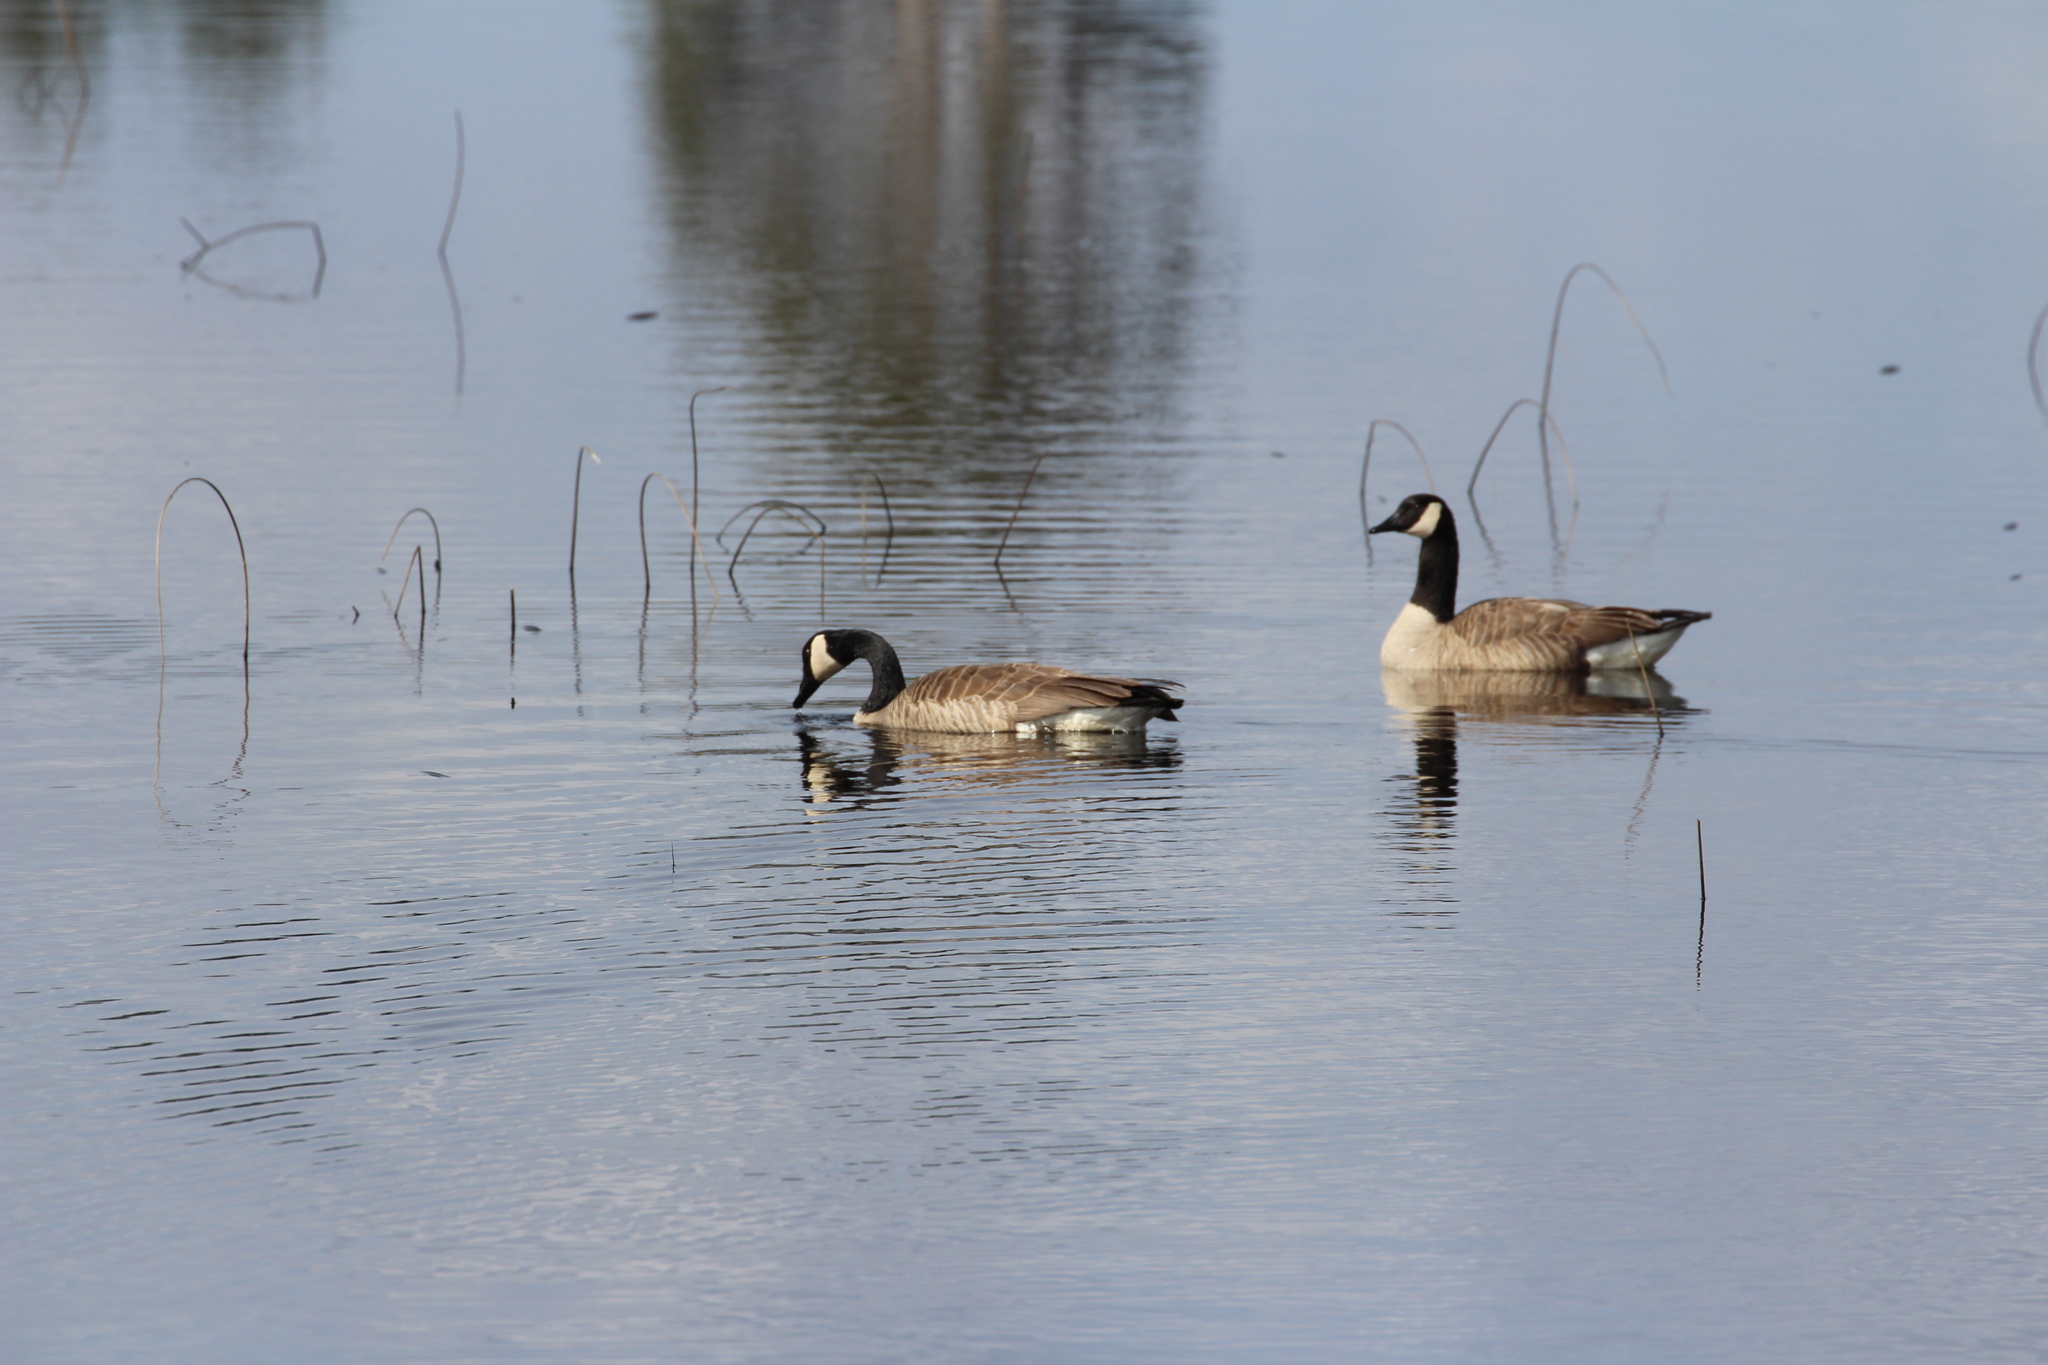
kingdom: Animalia
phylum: Chordata
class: Aves
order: Anseriformes
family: Anatidae
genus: Branta
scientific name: Branta canadensis
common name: Canada goose
